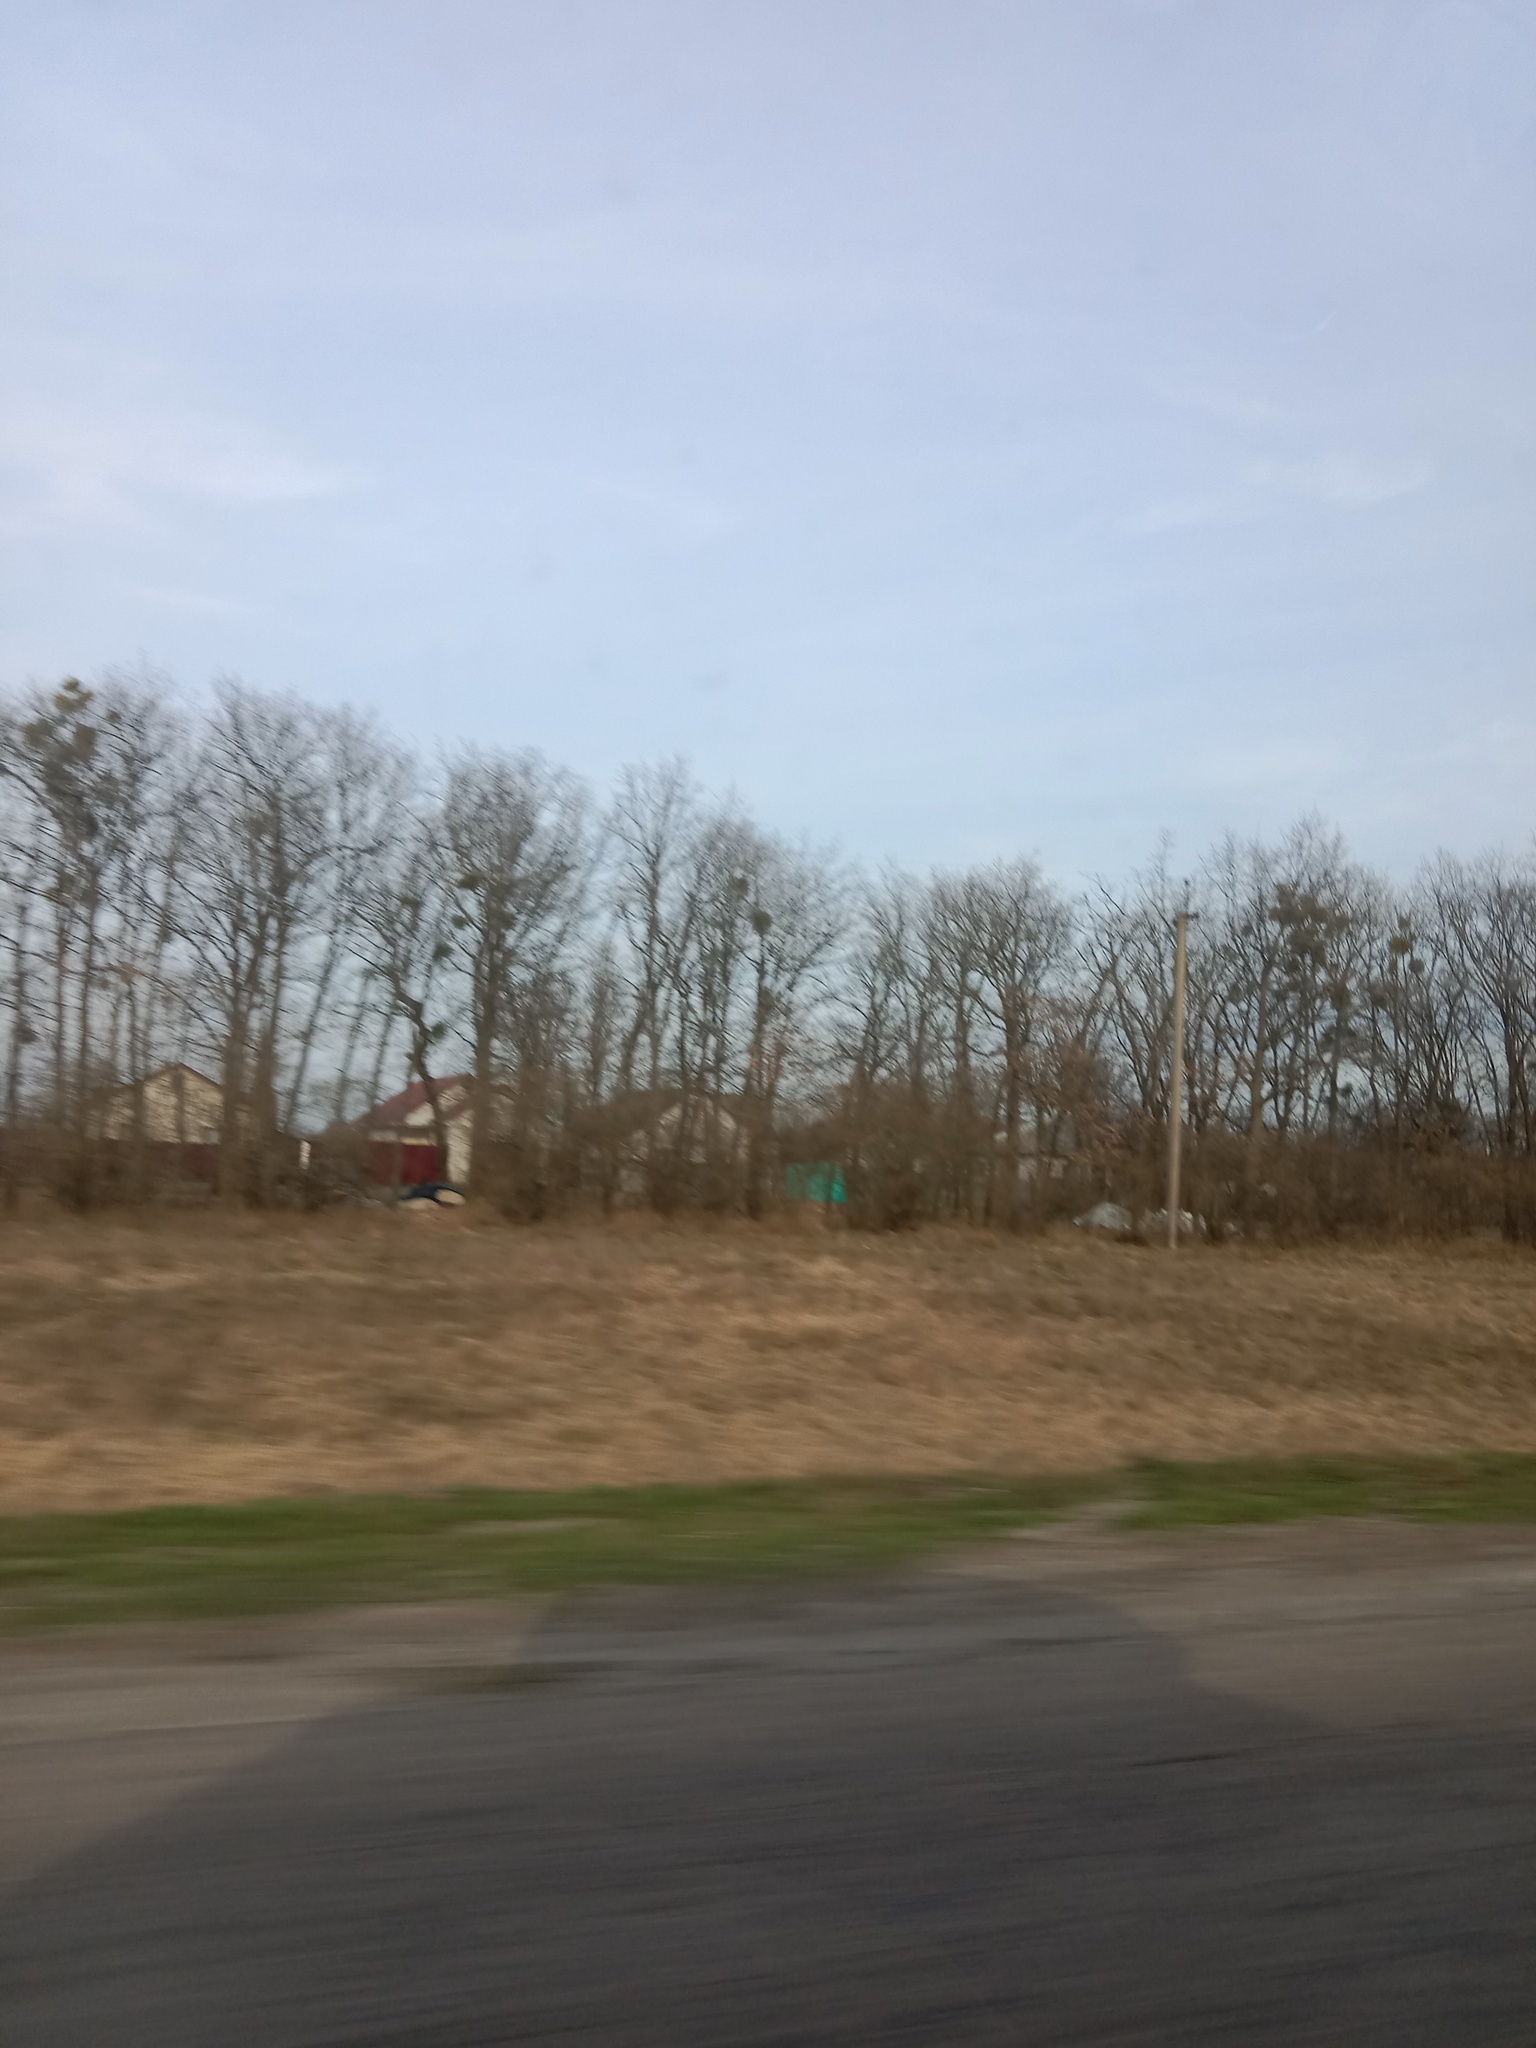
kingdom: Plantae
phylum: Tracheophyta
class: Magnoliopsida
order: Santalales
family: Viscaceae
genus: Viscum
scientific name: Viscum album
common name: Mistletoe
